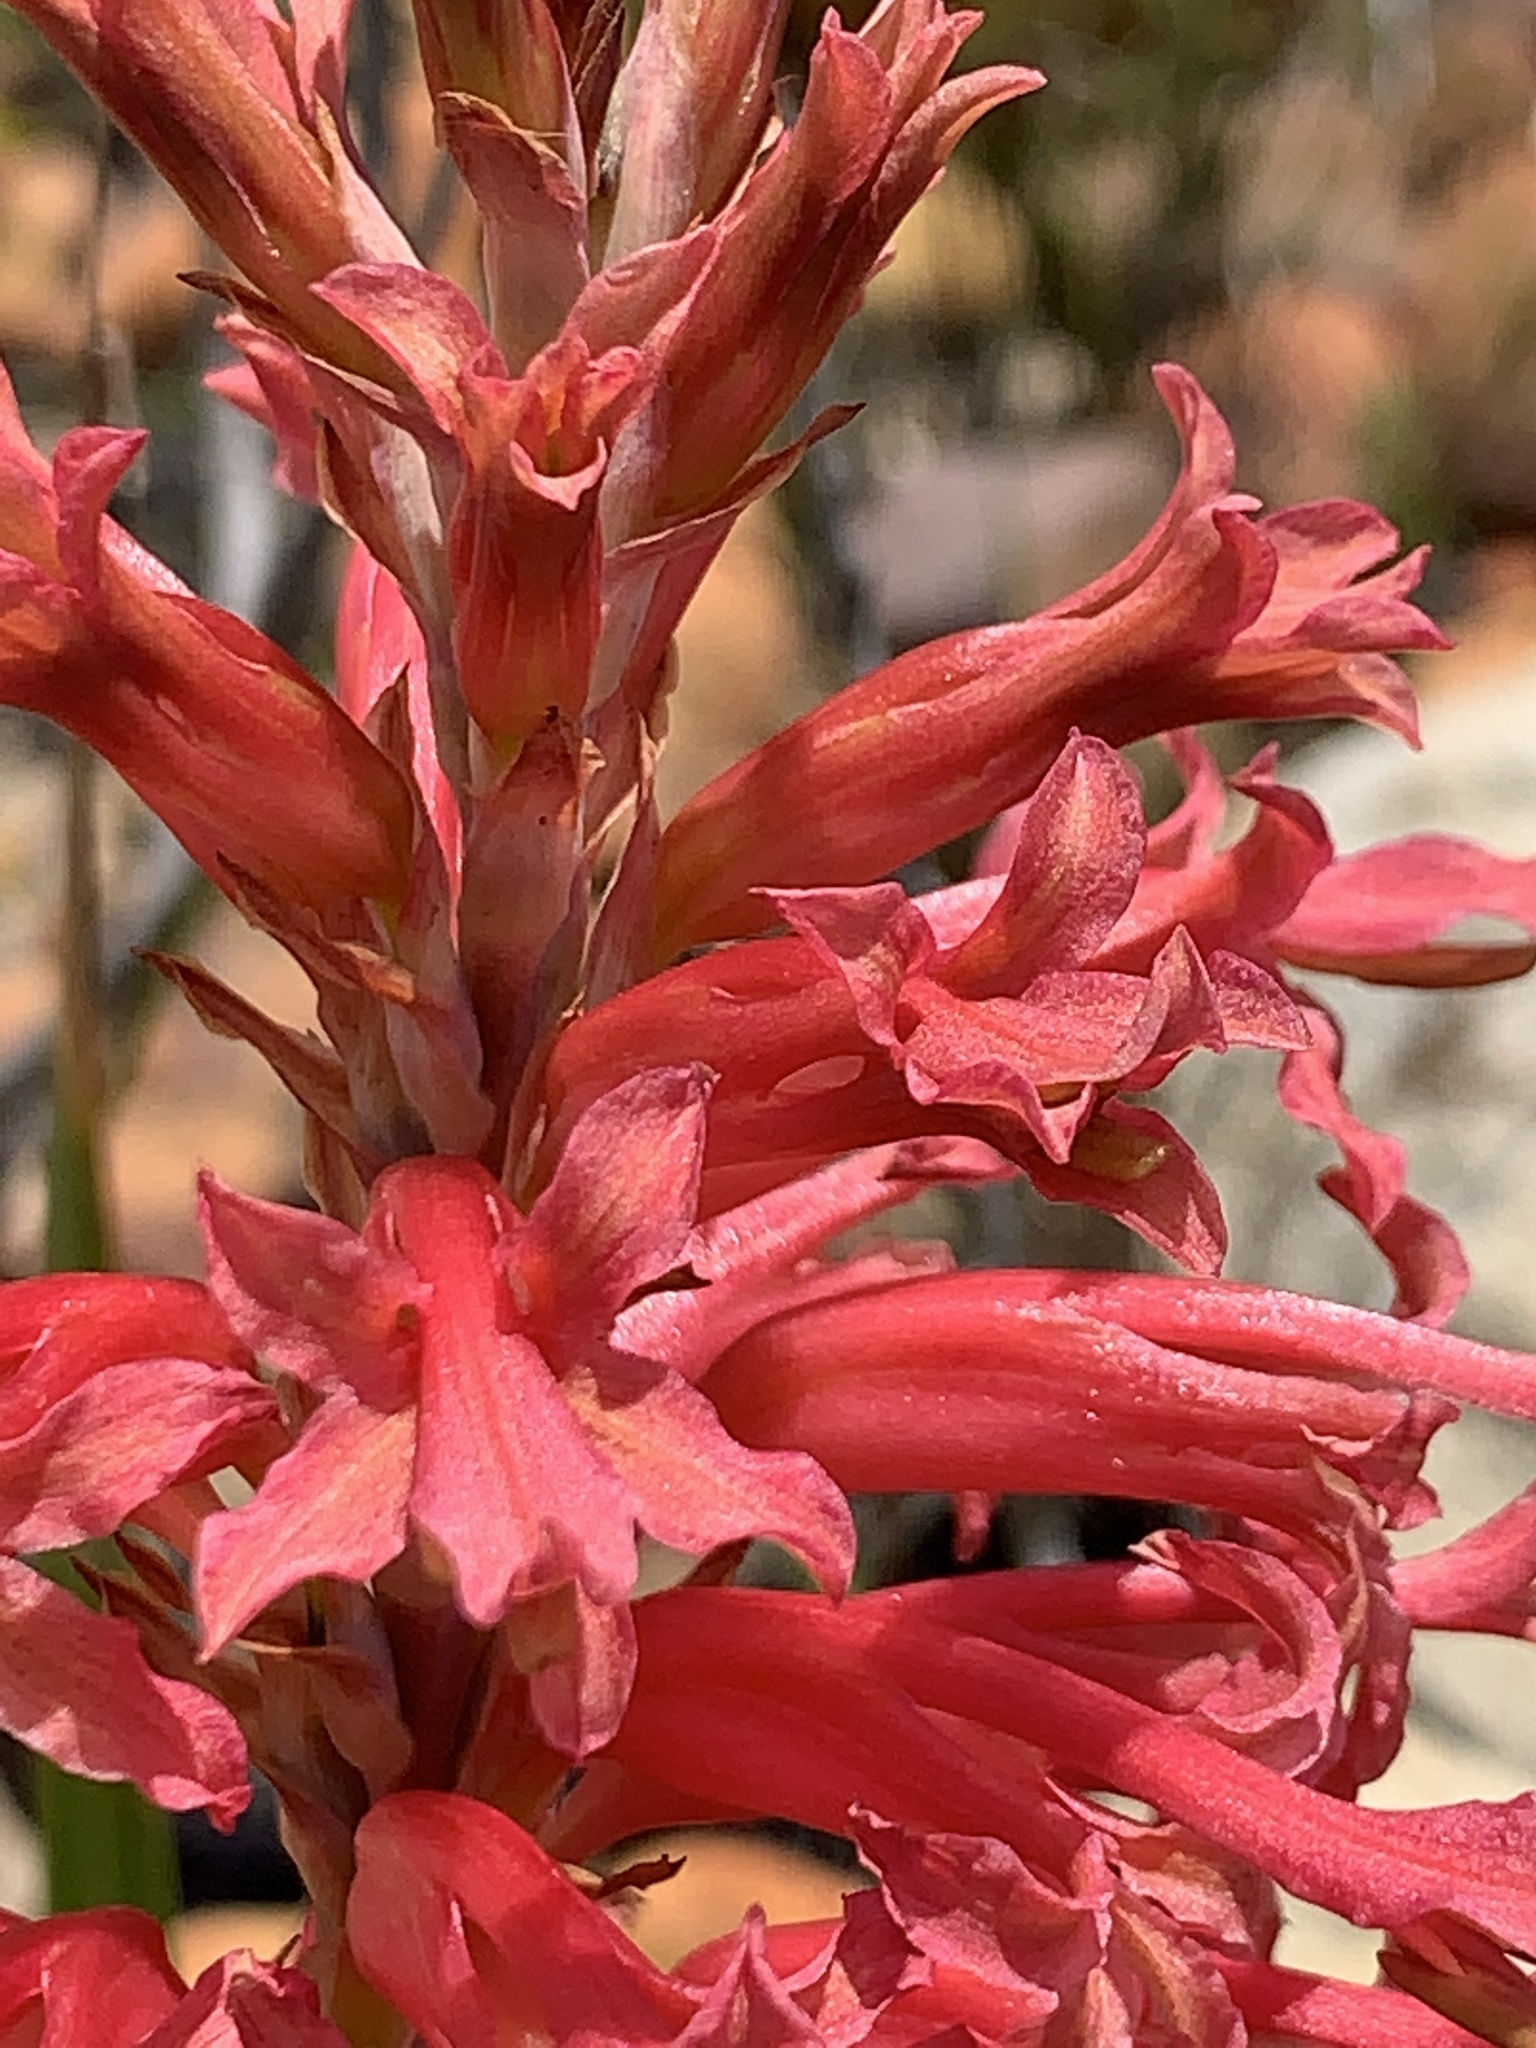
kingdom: Plantae
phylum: Tracheophyta
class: Liliopsida
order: Asparagales
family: Iridaceae
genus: Tritoniopsis
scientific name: Tritoniopsis antholyza
